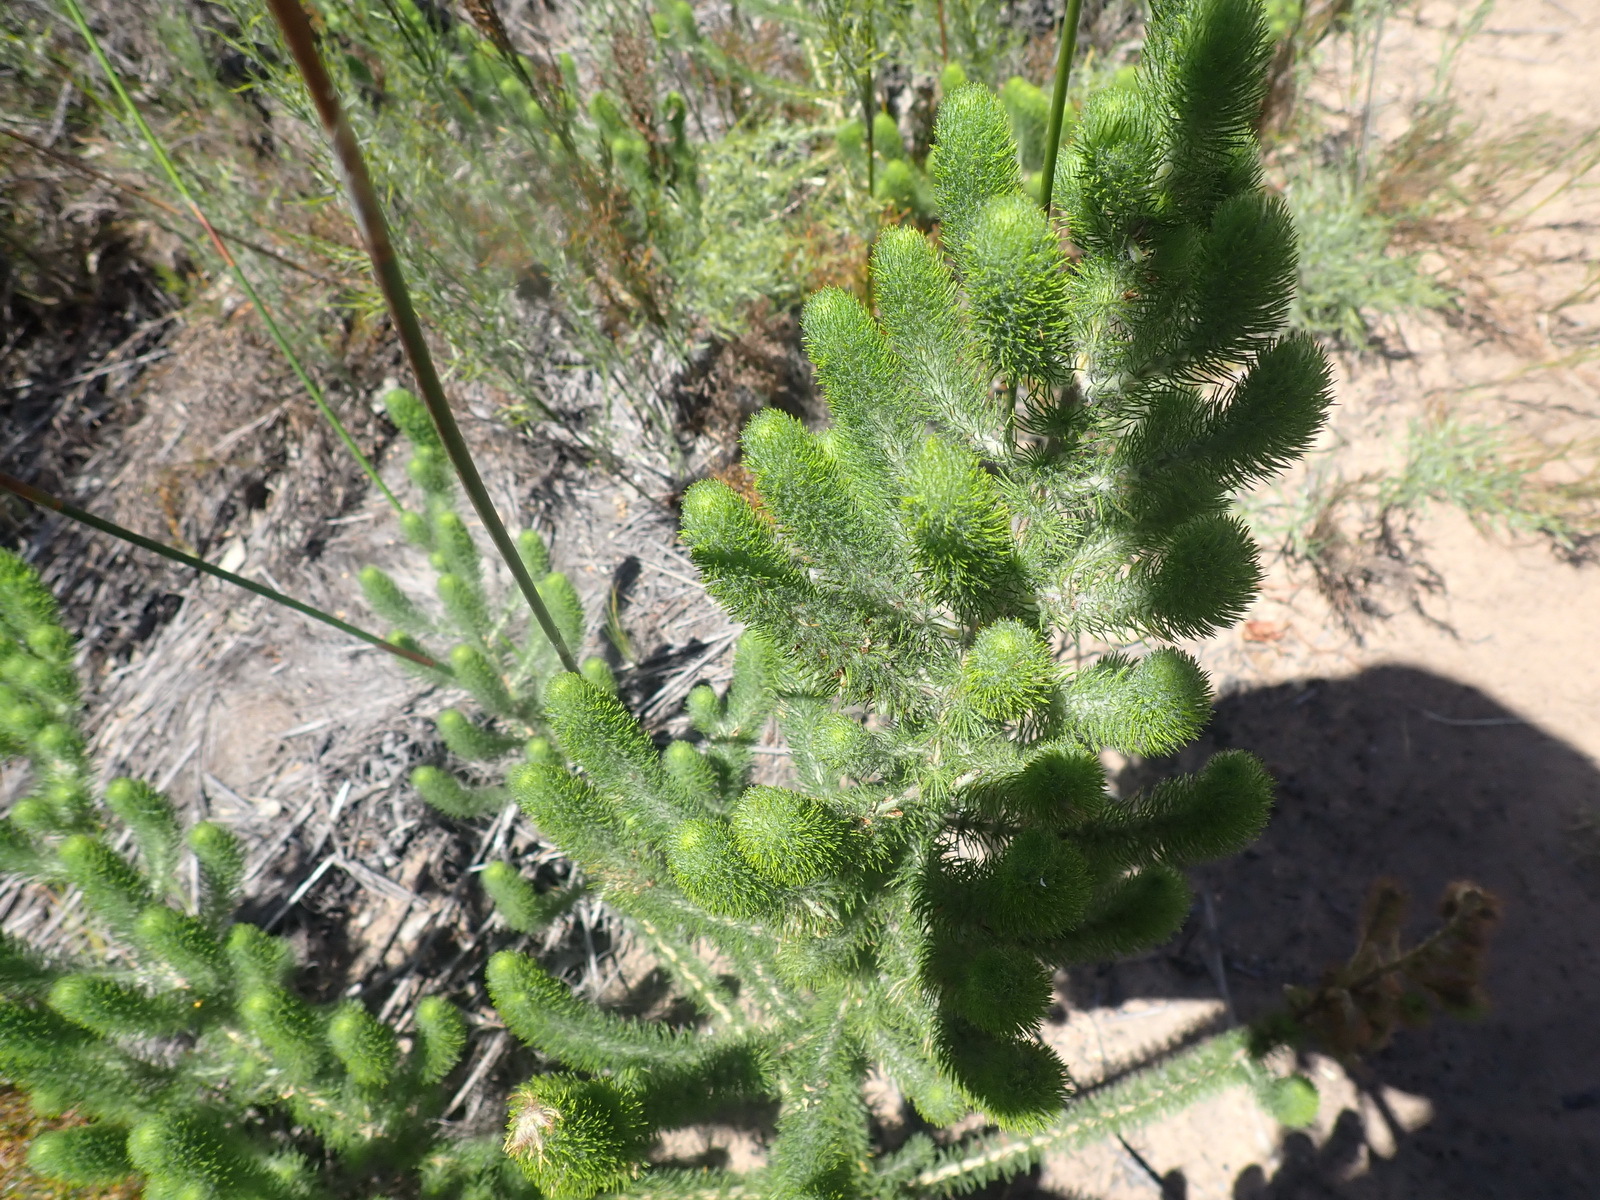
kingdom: Plantae
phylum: Tracheophyta
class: Magnoliopsida
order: Fabales
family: Fabaceae
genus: Aspalathus
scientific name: Aspalathus alopecurus
